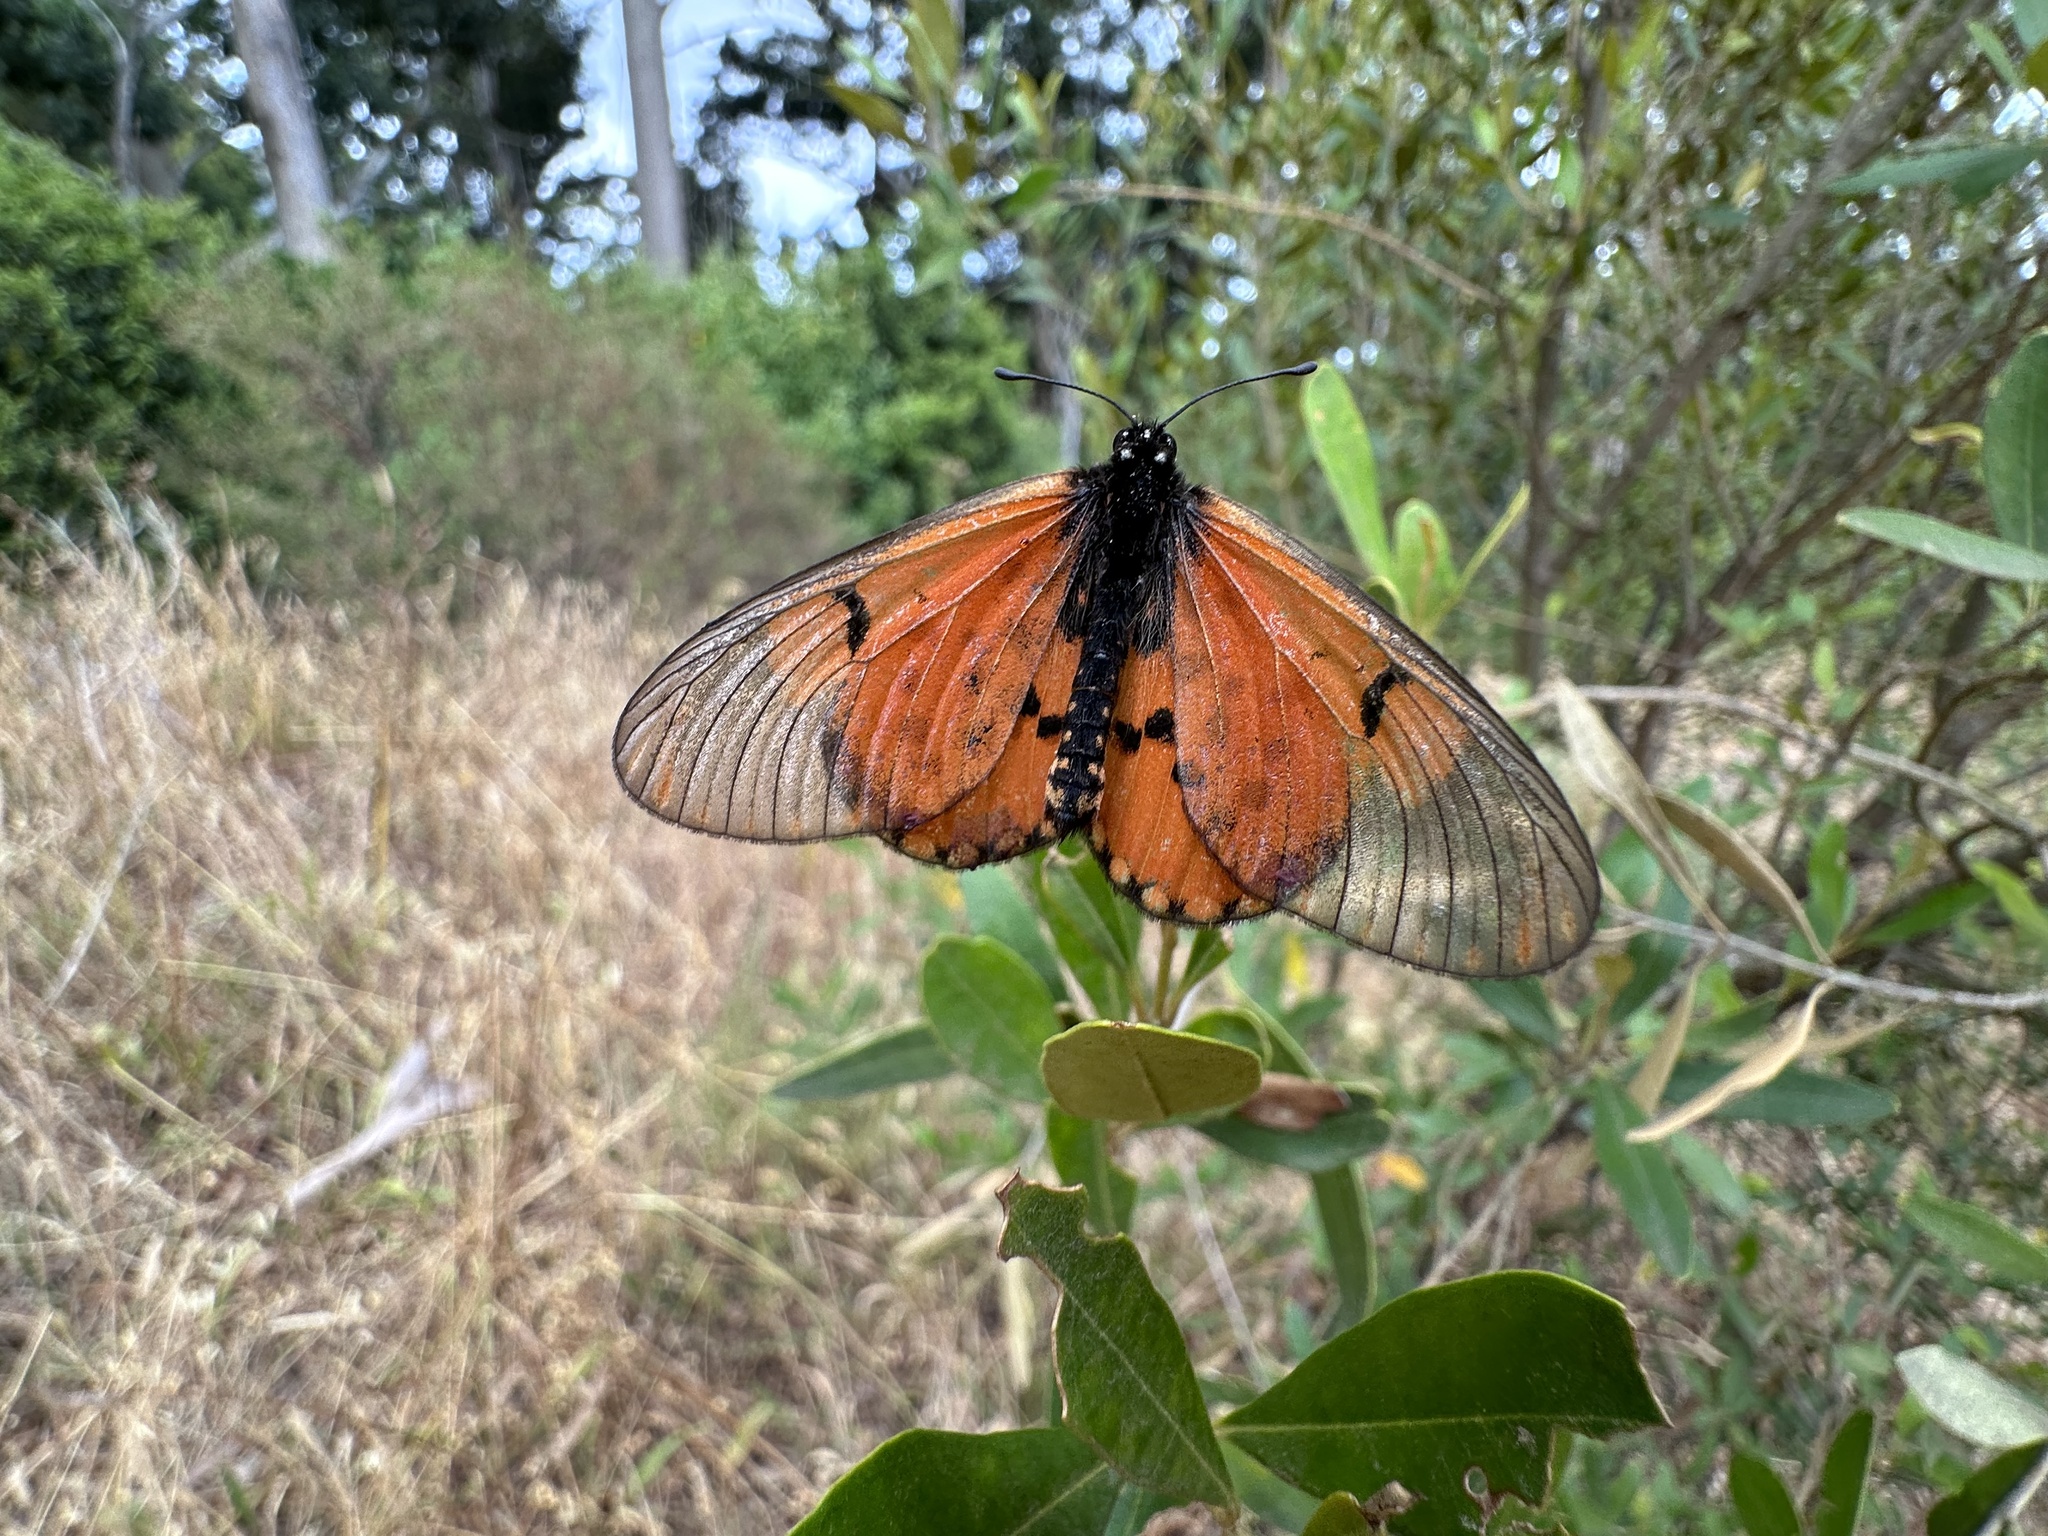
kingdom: Animalia
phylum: Arthropoda
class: Insecta
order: Lepidoptera
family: Nymphalidae
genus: Acraea
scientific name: Acraea horta
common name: Garden acraea
